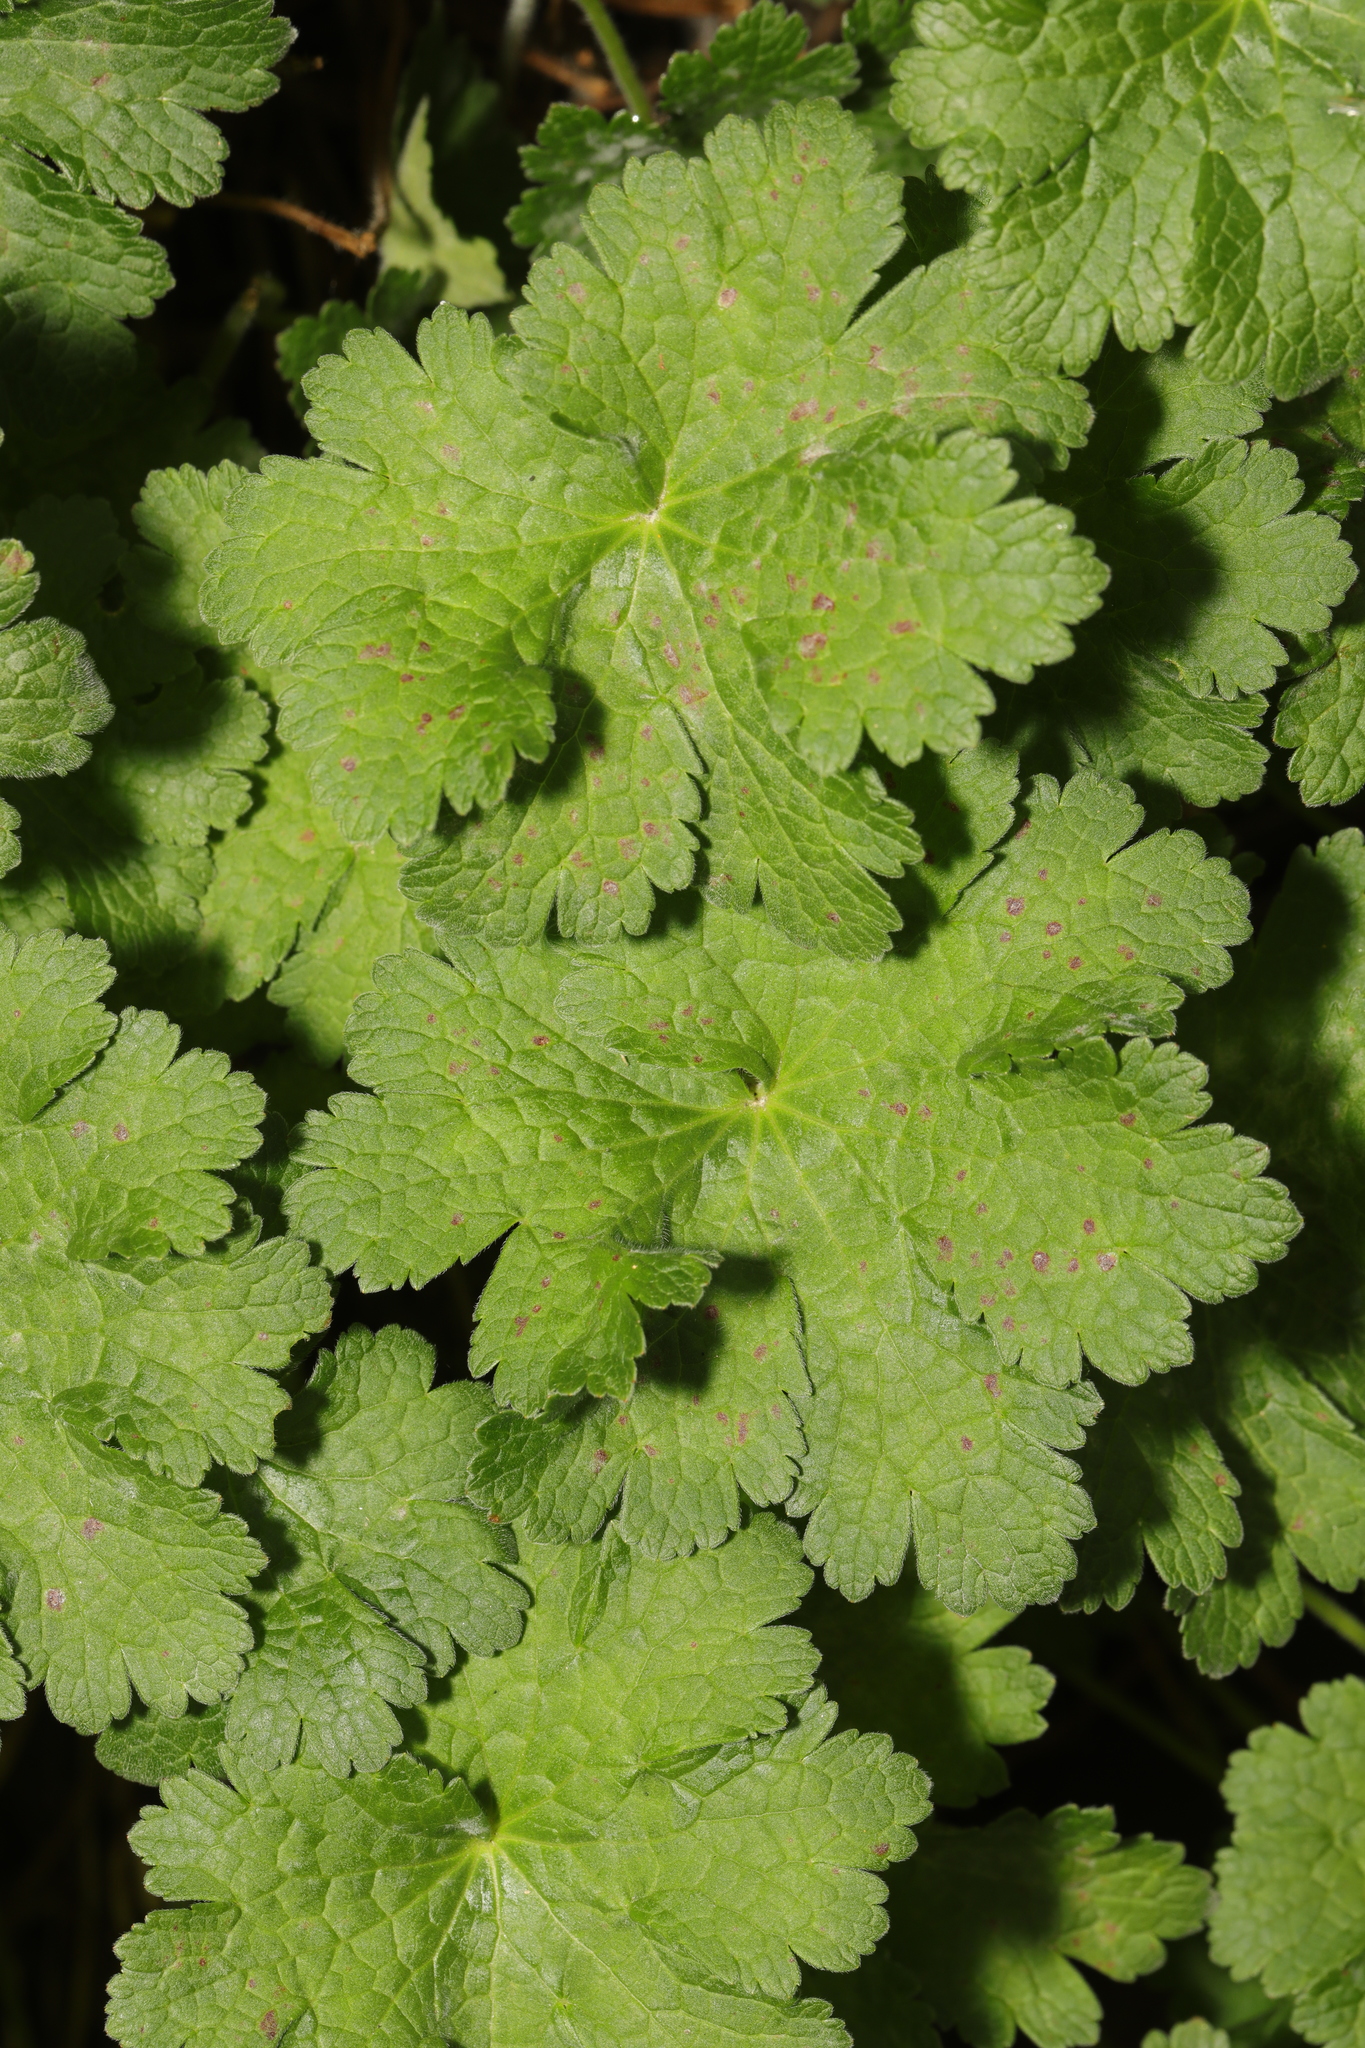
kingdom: Plantae
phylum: Tracheophyta
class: Magnoliopsida
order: Geraniales
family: Geraniaceae
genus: Geranium
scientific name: Geranium magnificum
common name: Purple crane's-bill
